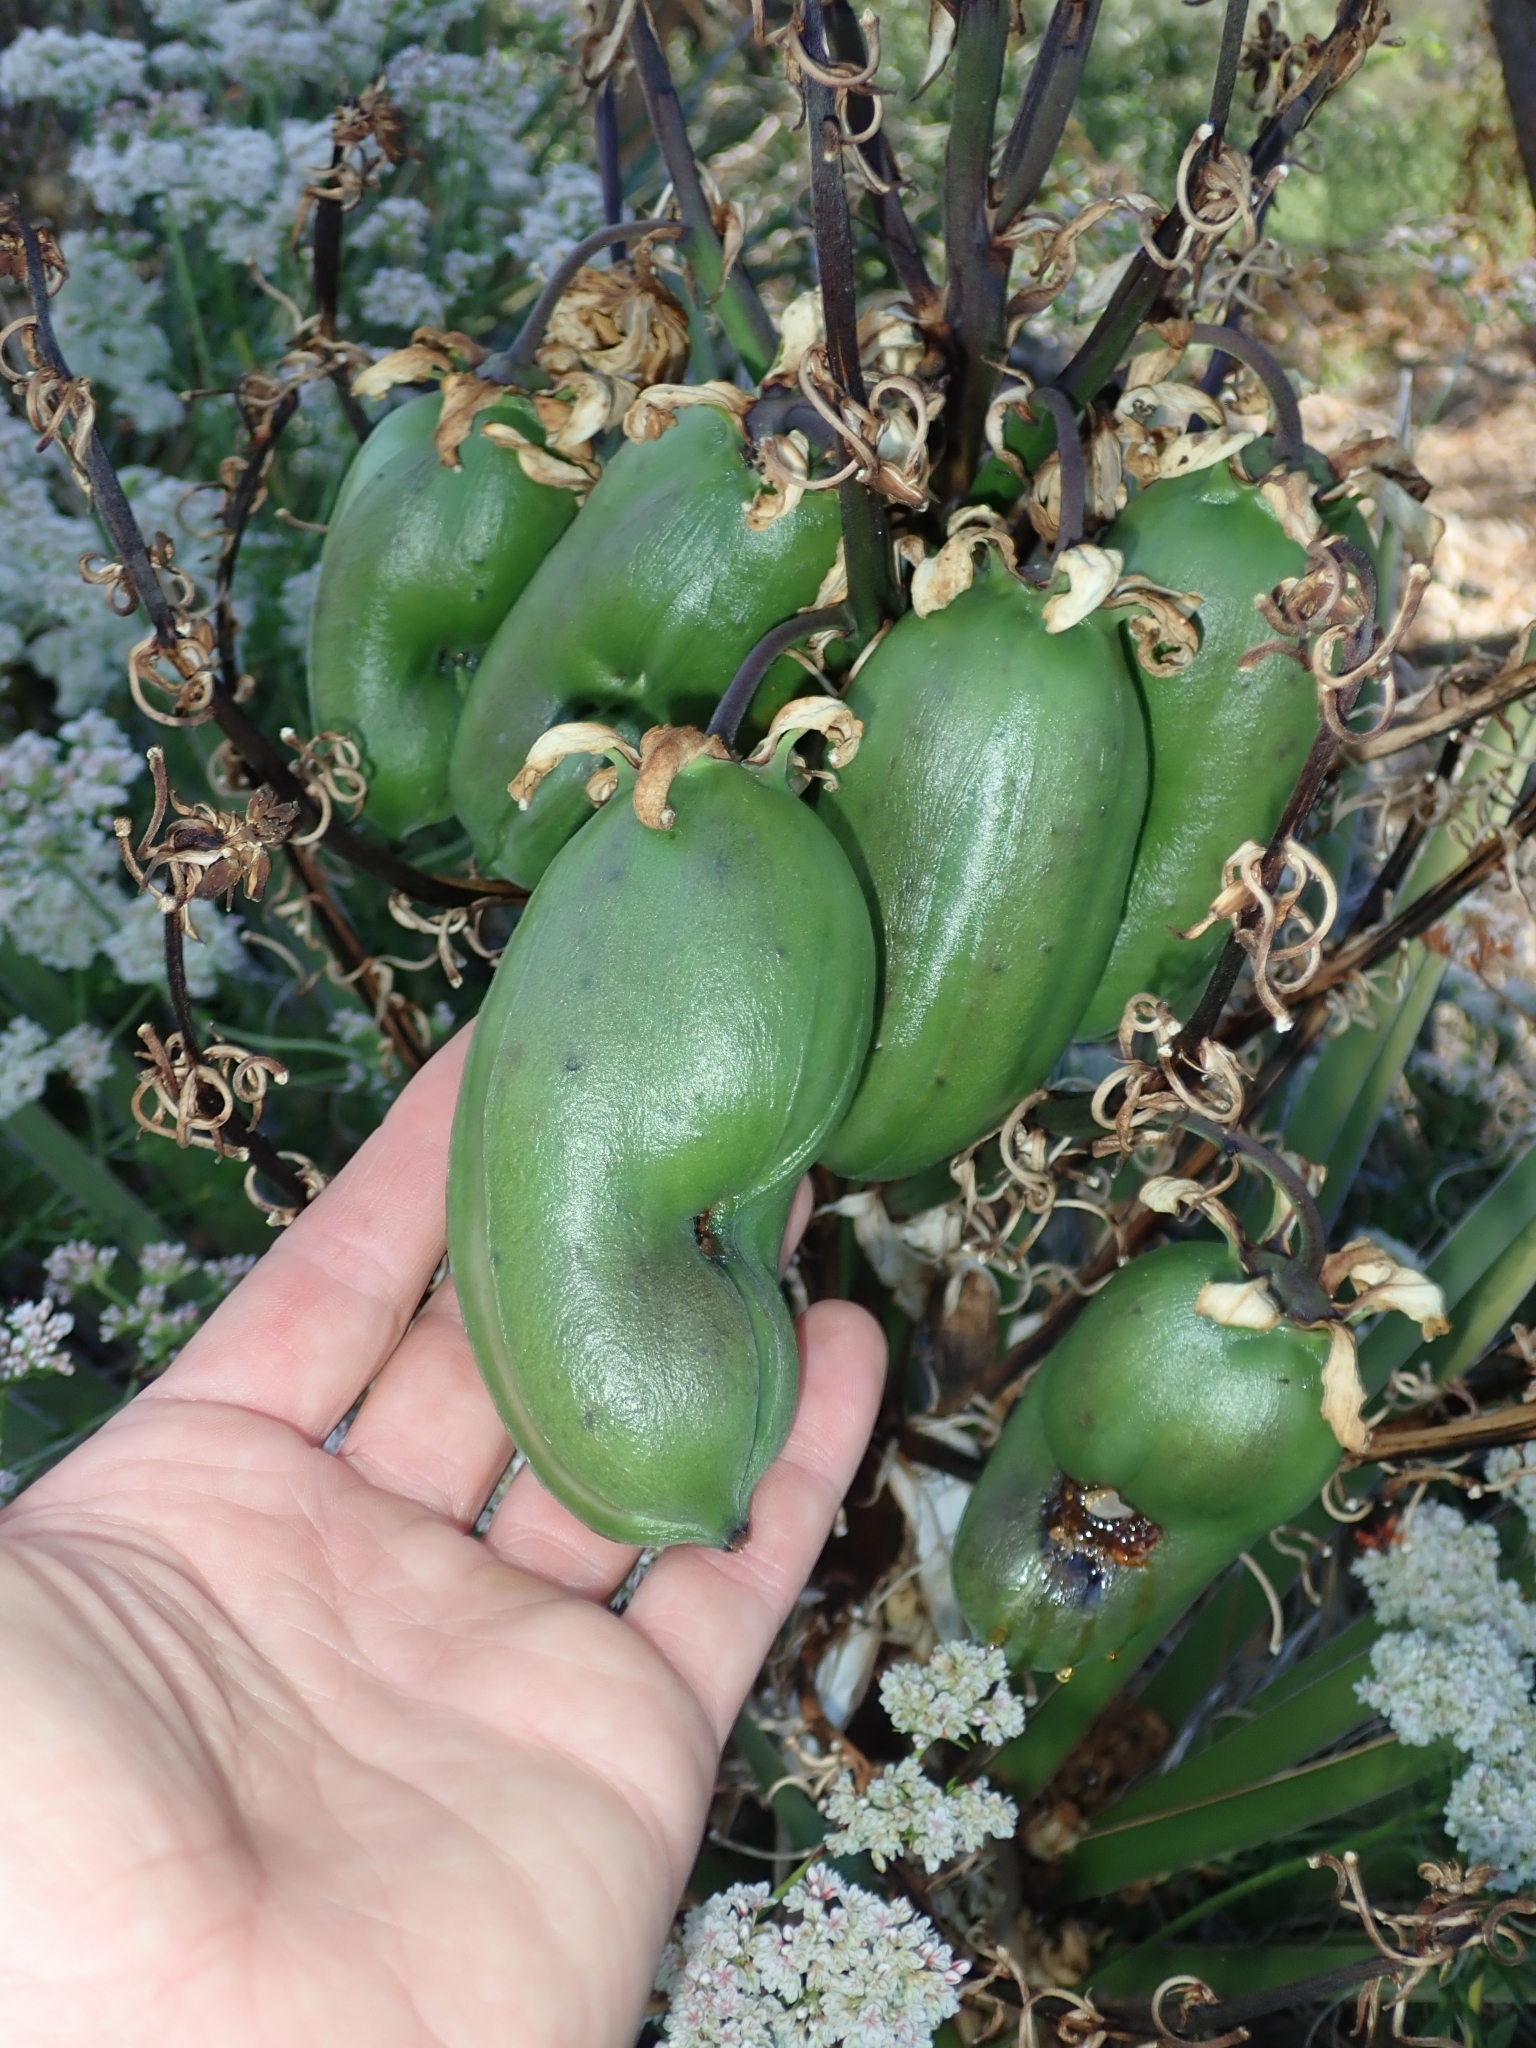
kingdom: Plantae
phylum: Tracheophyta
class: Liliopsida
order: Asparagales
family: Asparagaceae
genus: Yucca
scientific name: Yucca schidigera
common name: Mojave yucca
